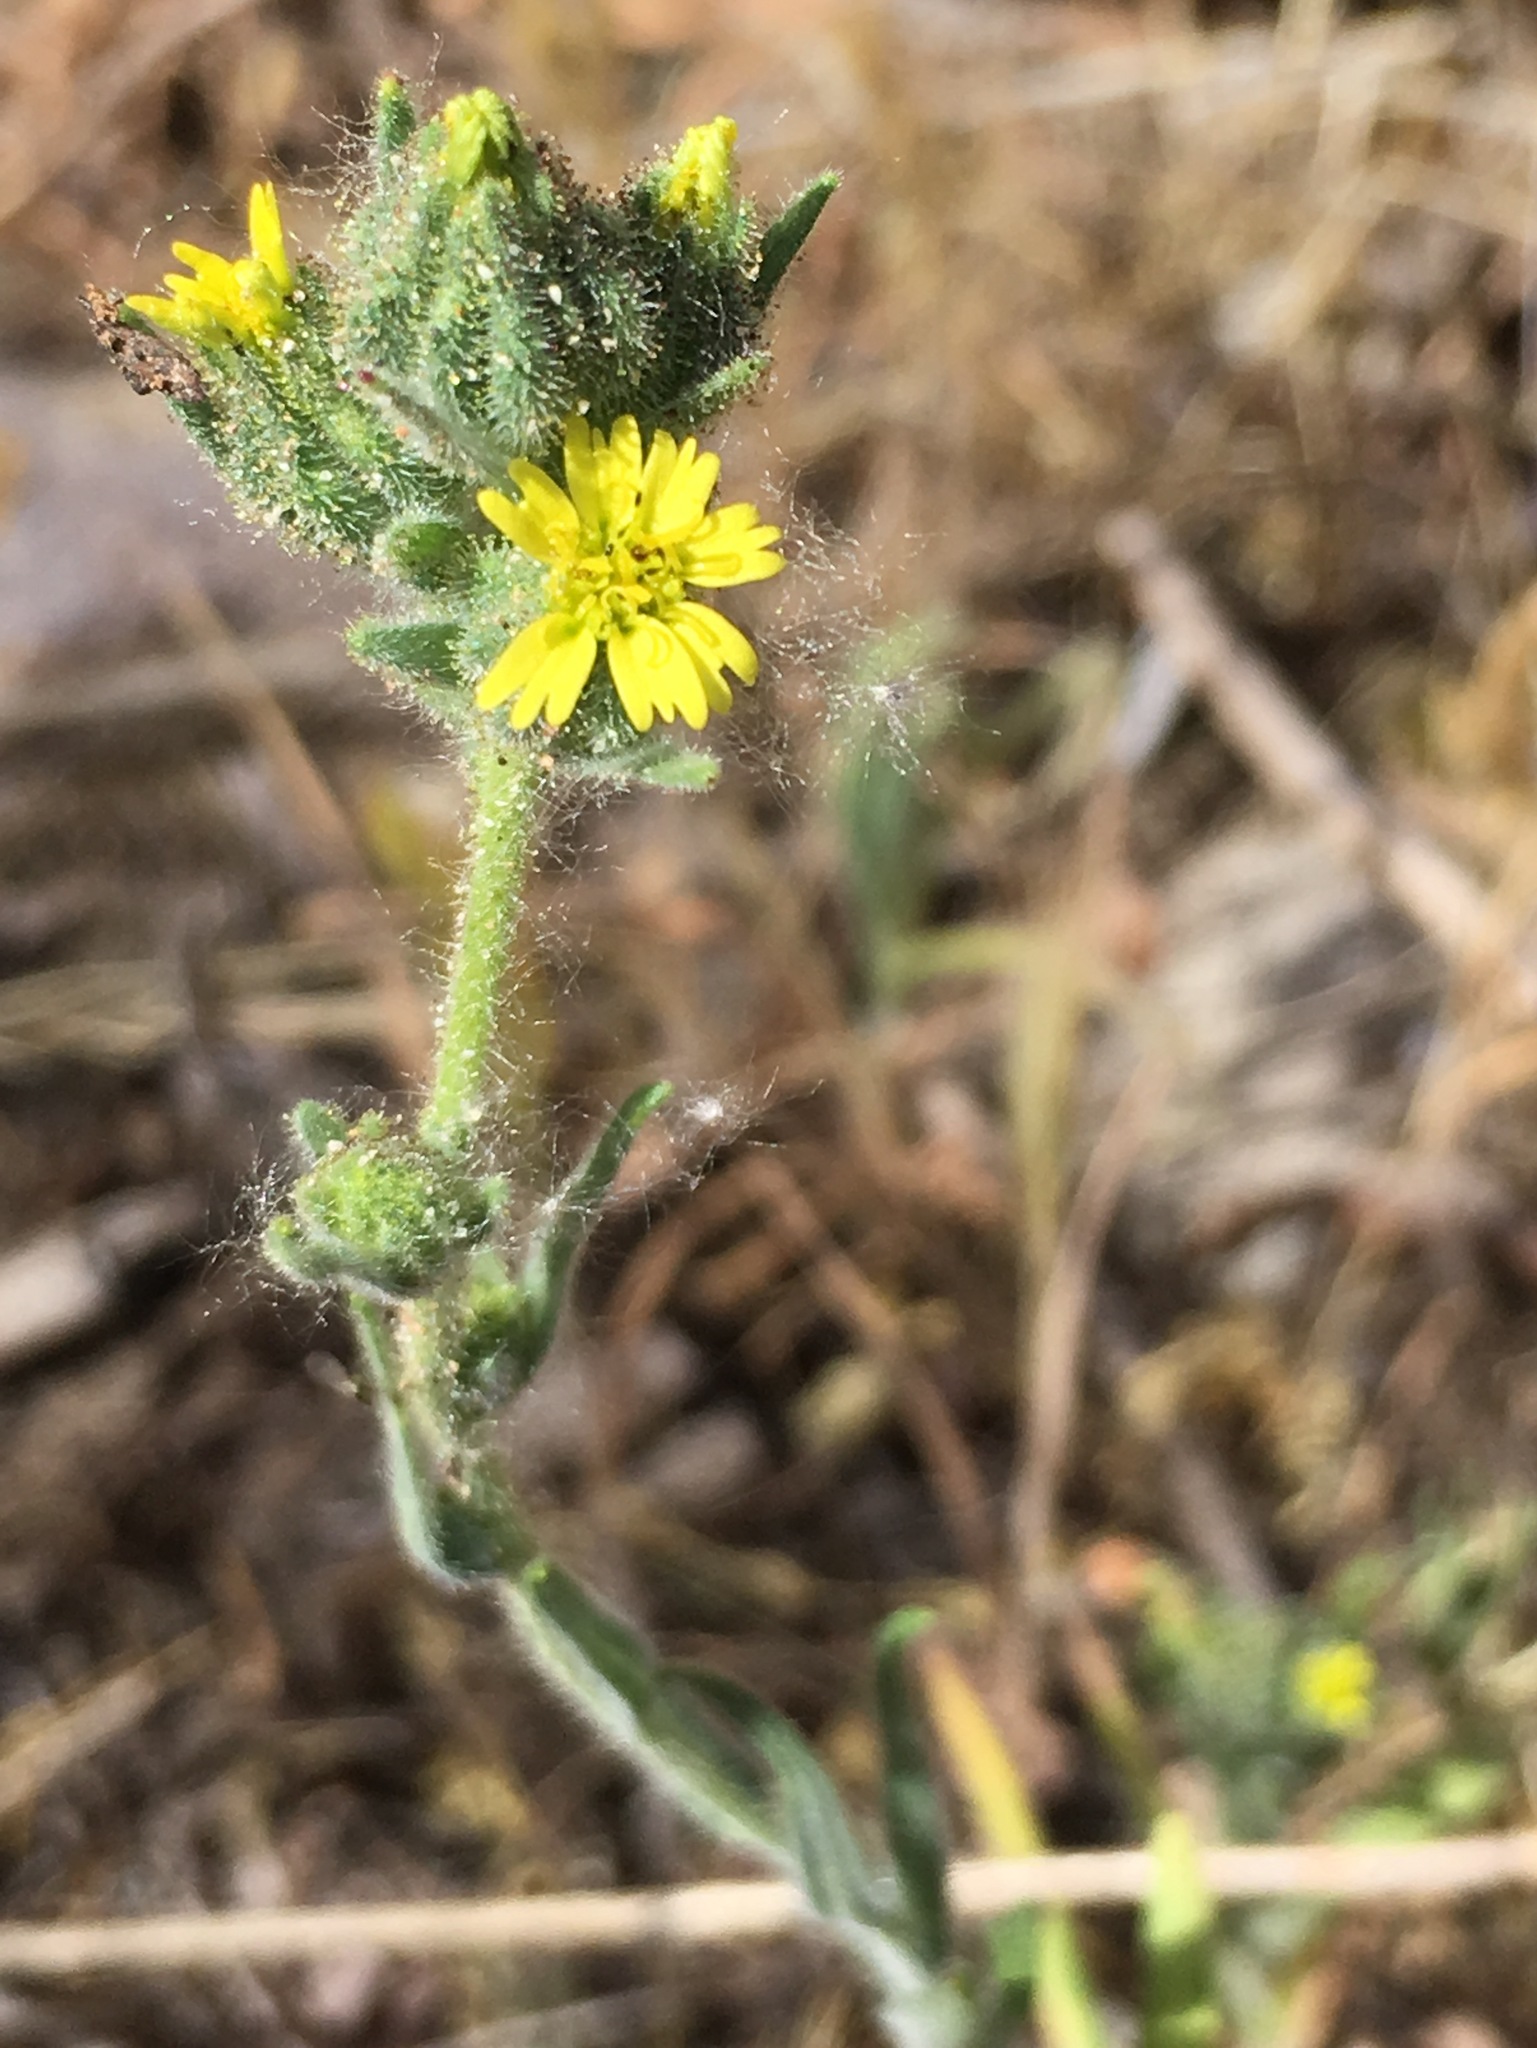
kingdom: Plantae
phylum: Tracheophyta
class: Magnoliopsida
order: Asterales
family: Asteraceae
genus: Madia
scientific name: Madia gracilis
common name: Grassy tarweed
